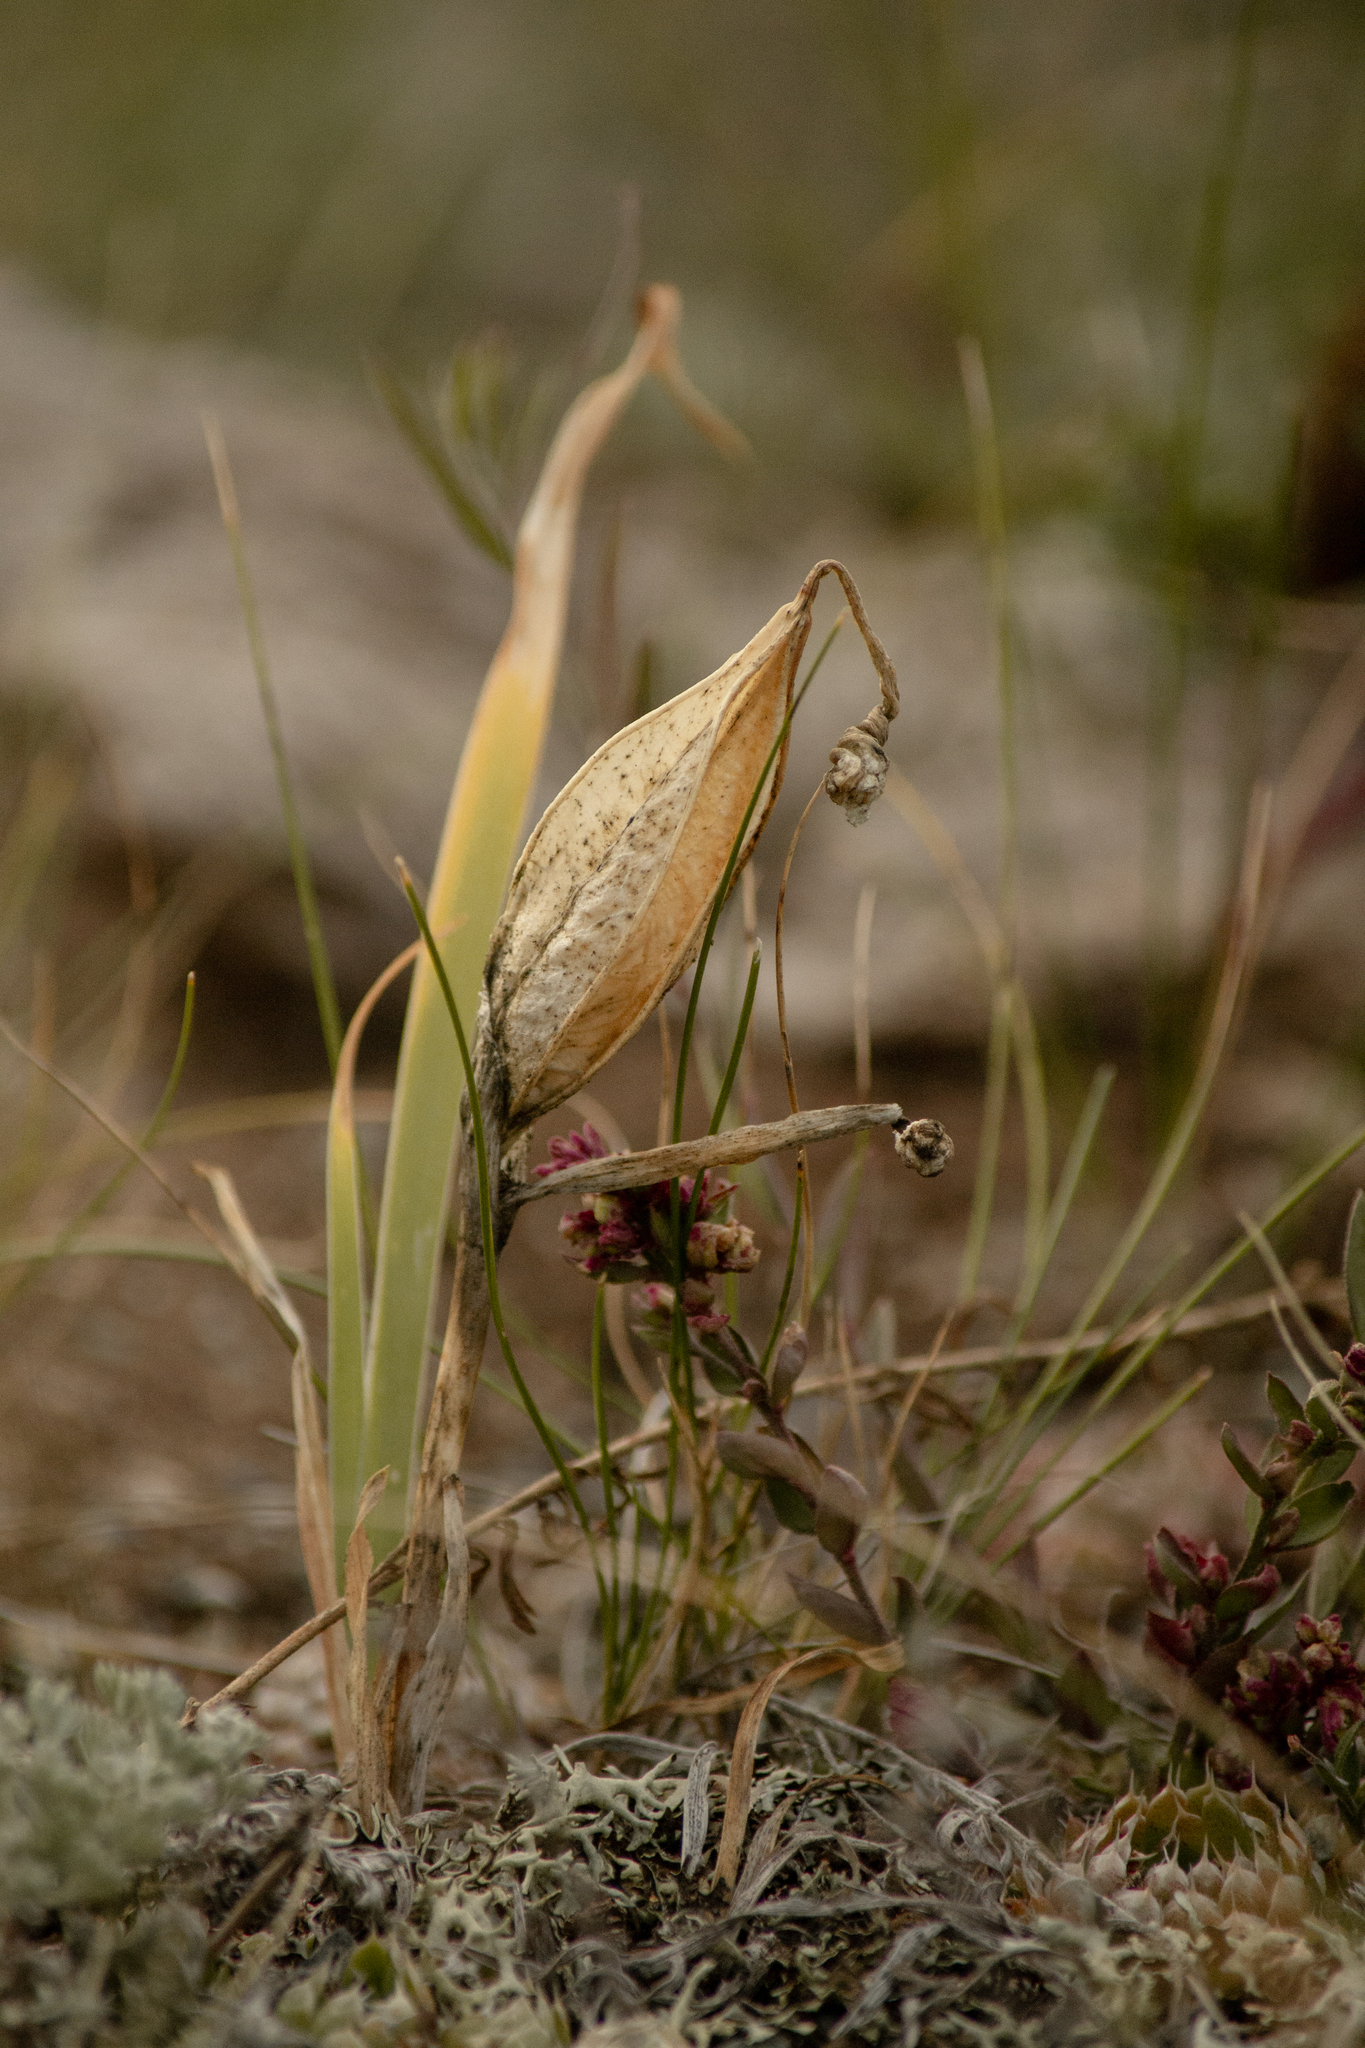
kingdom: Plantae
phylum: Tracheophyta
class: Liliopsida
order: Asparagales
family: Iridaceae
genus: Iris
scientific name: Iris humilis
